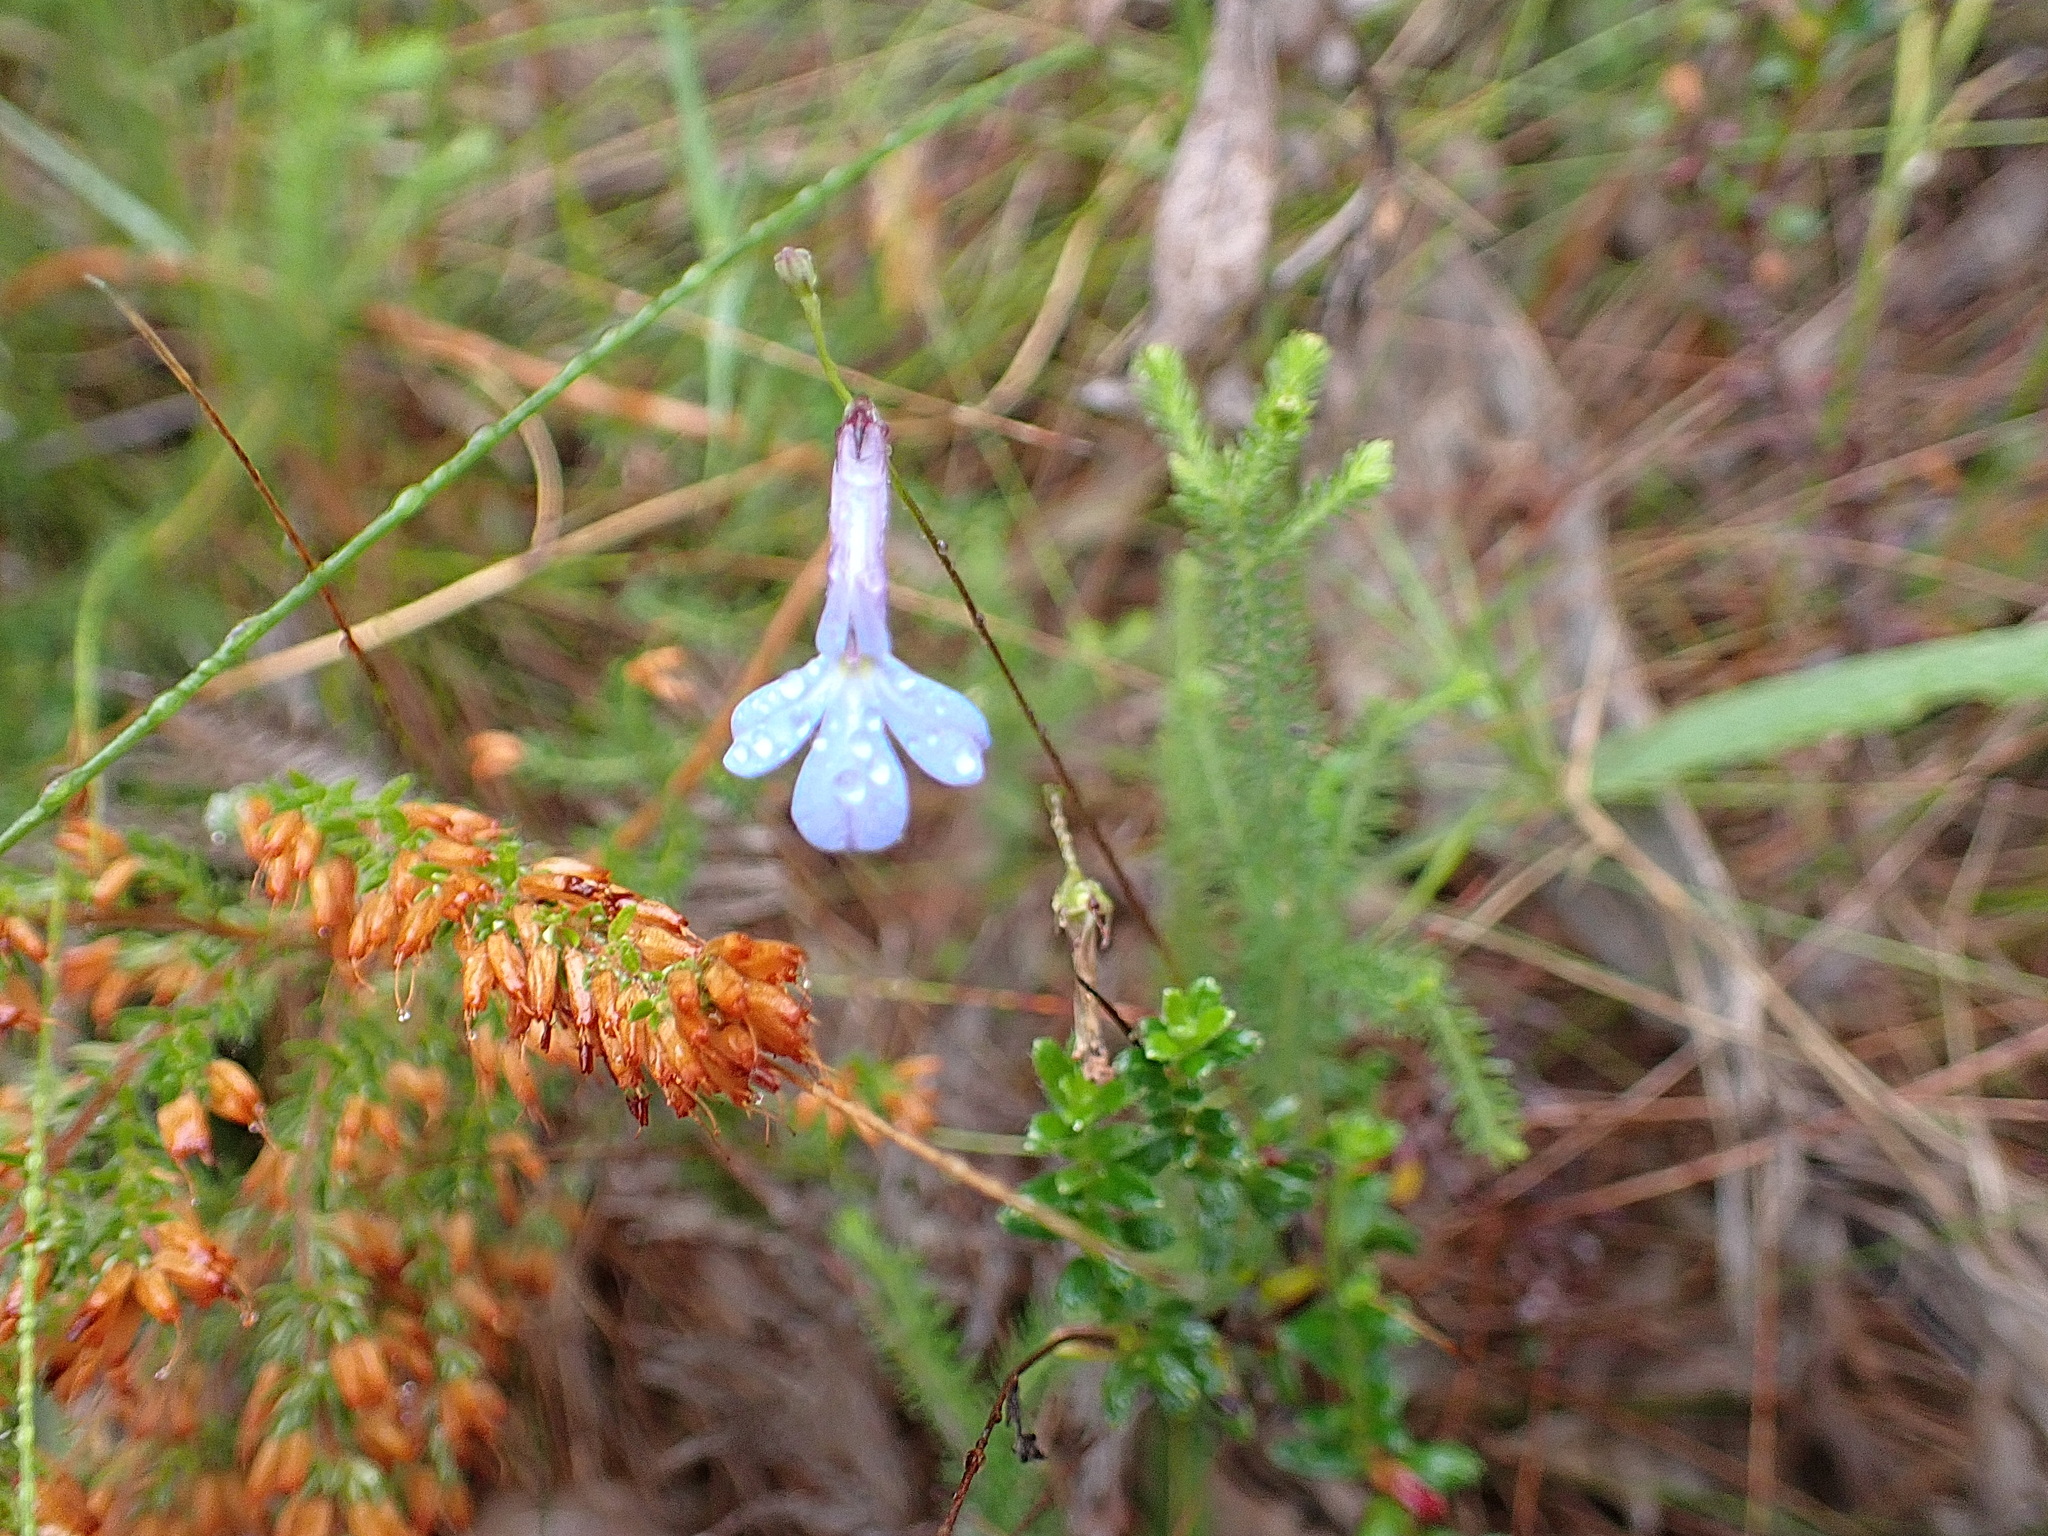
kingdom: Plantae
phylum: Tracheophyta
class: Magnoliopsida
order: Asterales
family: Campanulaceae
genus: Lobelia
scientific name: Lobelia neglecta
